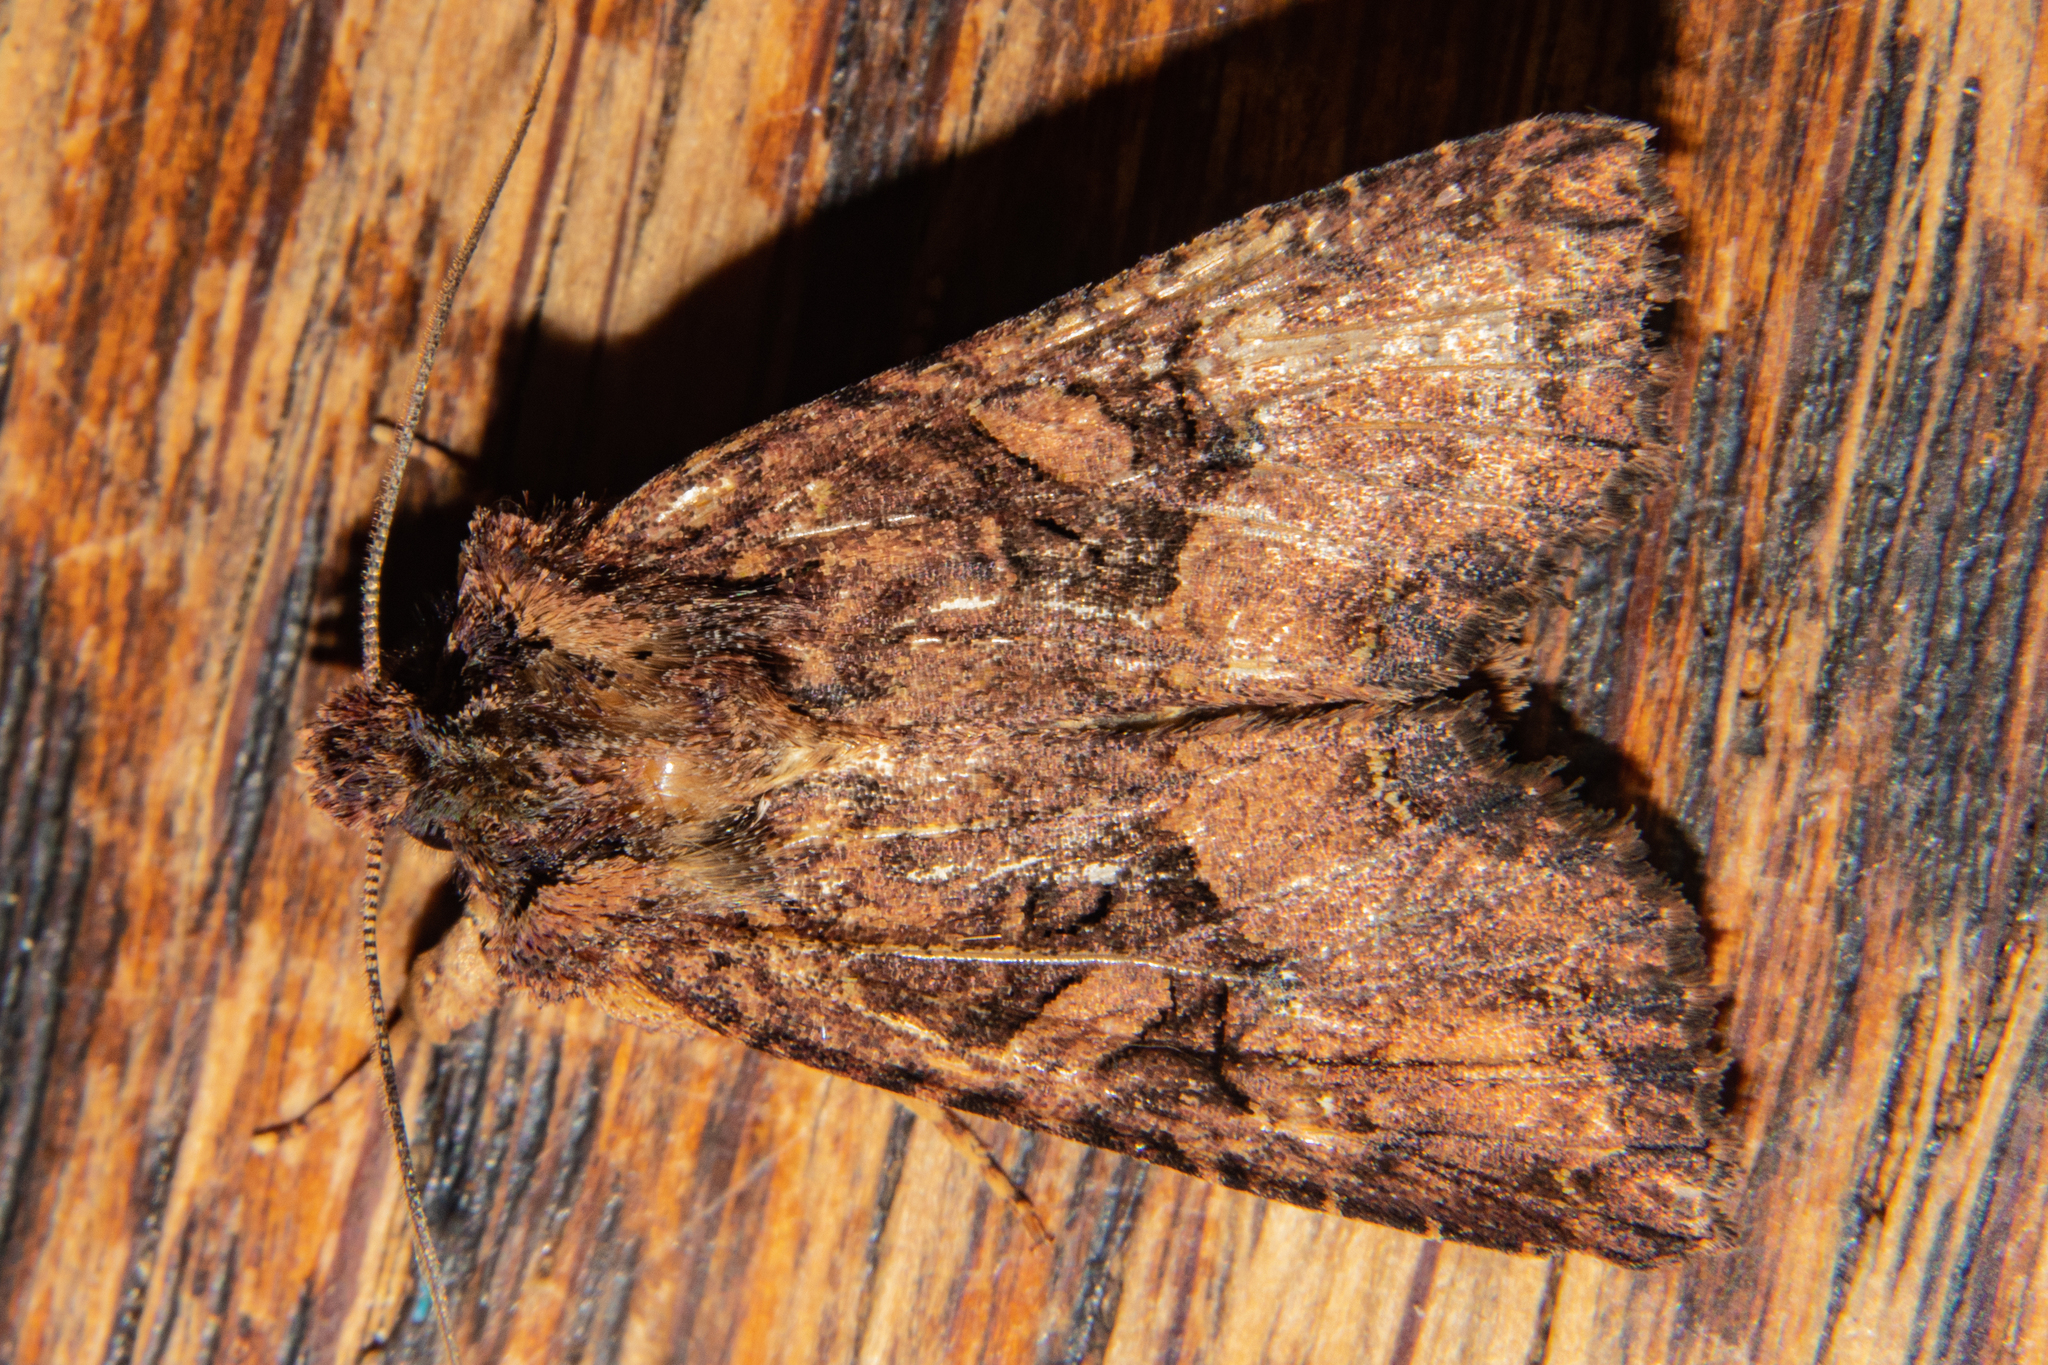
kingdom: Animalia
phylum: Arthropoda
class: Insecta
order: Lepidoptera
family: Noctuidae
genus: Meterana
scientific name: Meterana ochthistis
